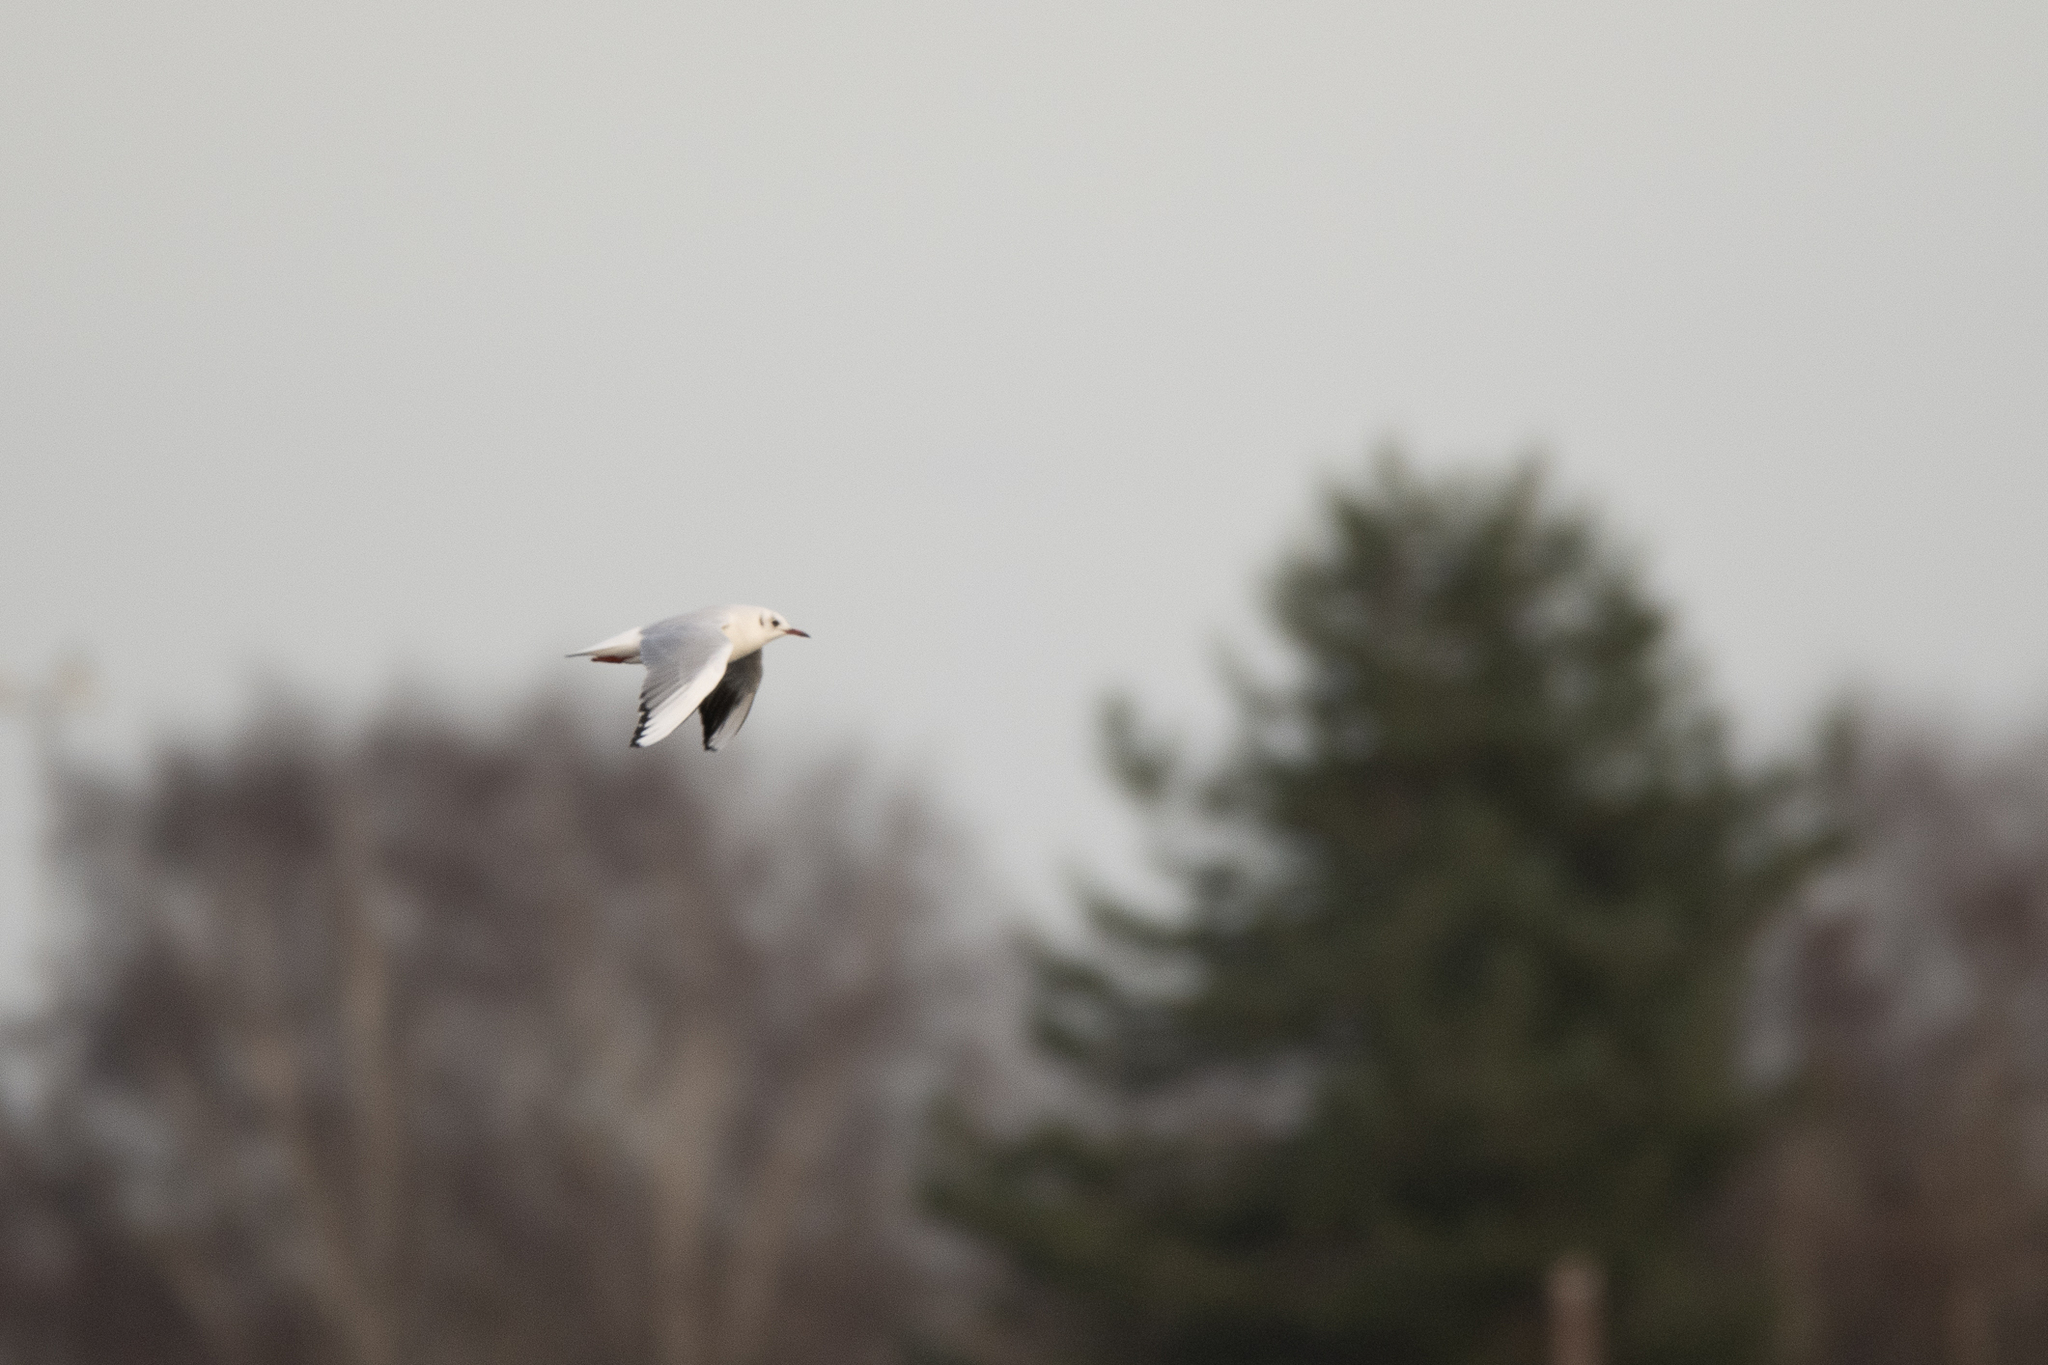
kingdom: Animalia
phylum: Chordata
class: Aves
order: Charadriiformes
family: Laridae
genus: Chroicocephalus
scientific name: Chroicocephalus ridibundus
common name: Black-headed gull
